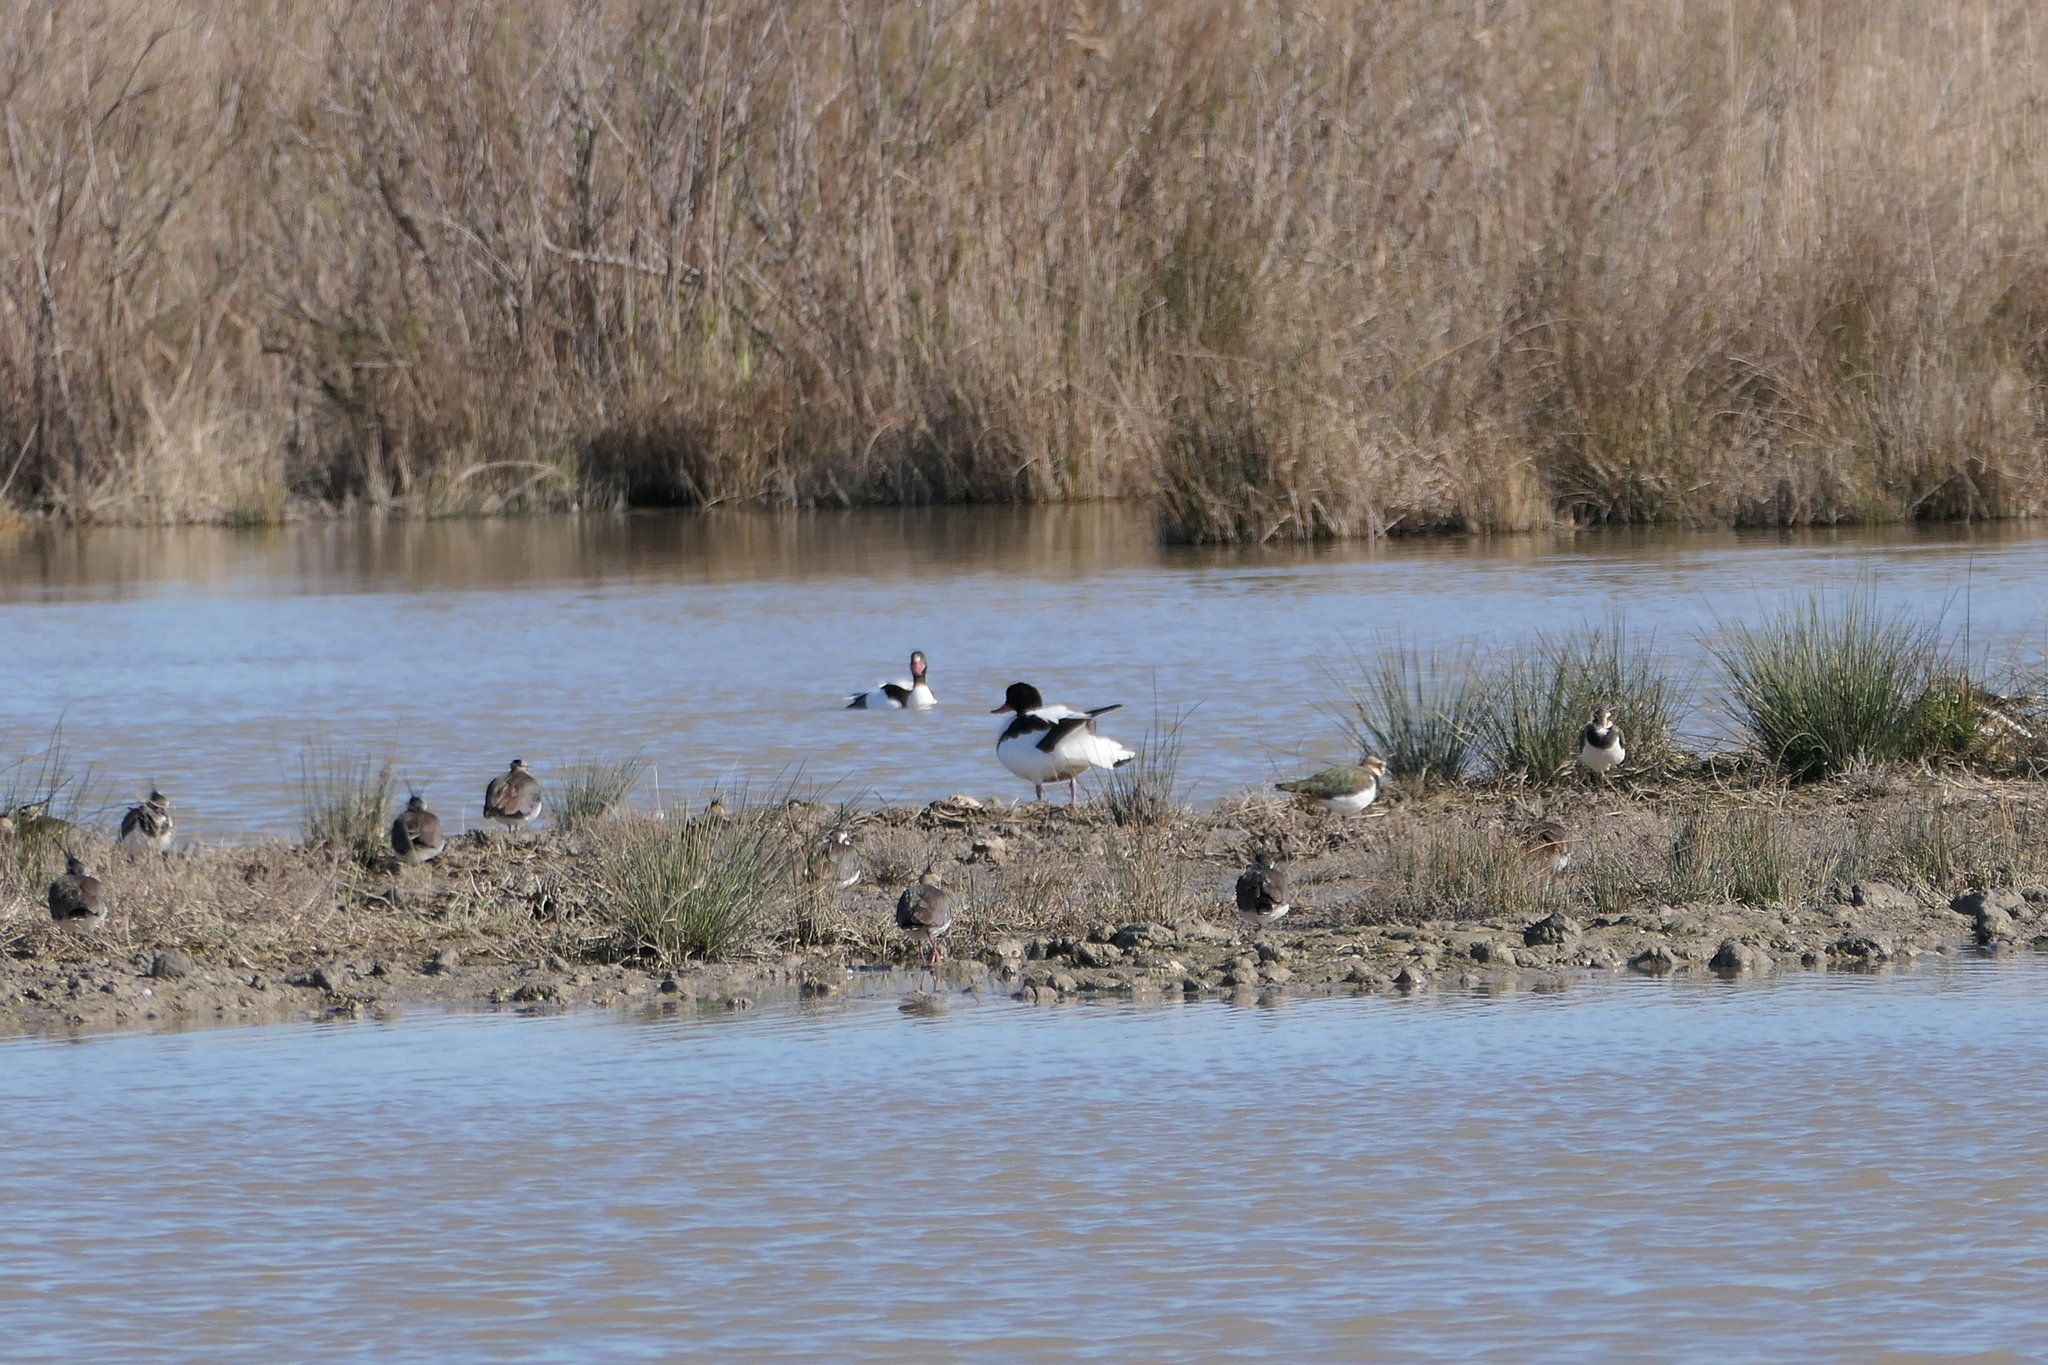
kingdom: Animalia
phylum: Chordata
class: Aves
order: Charadriiformes
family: Charadriidae
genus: Vanellus
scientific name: Vanellus vanellus
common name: Northern lapwing
